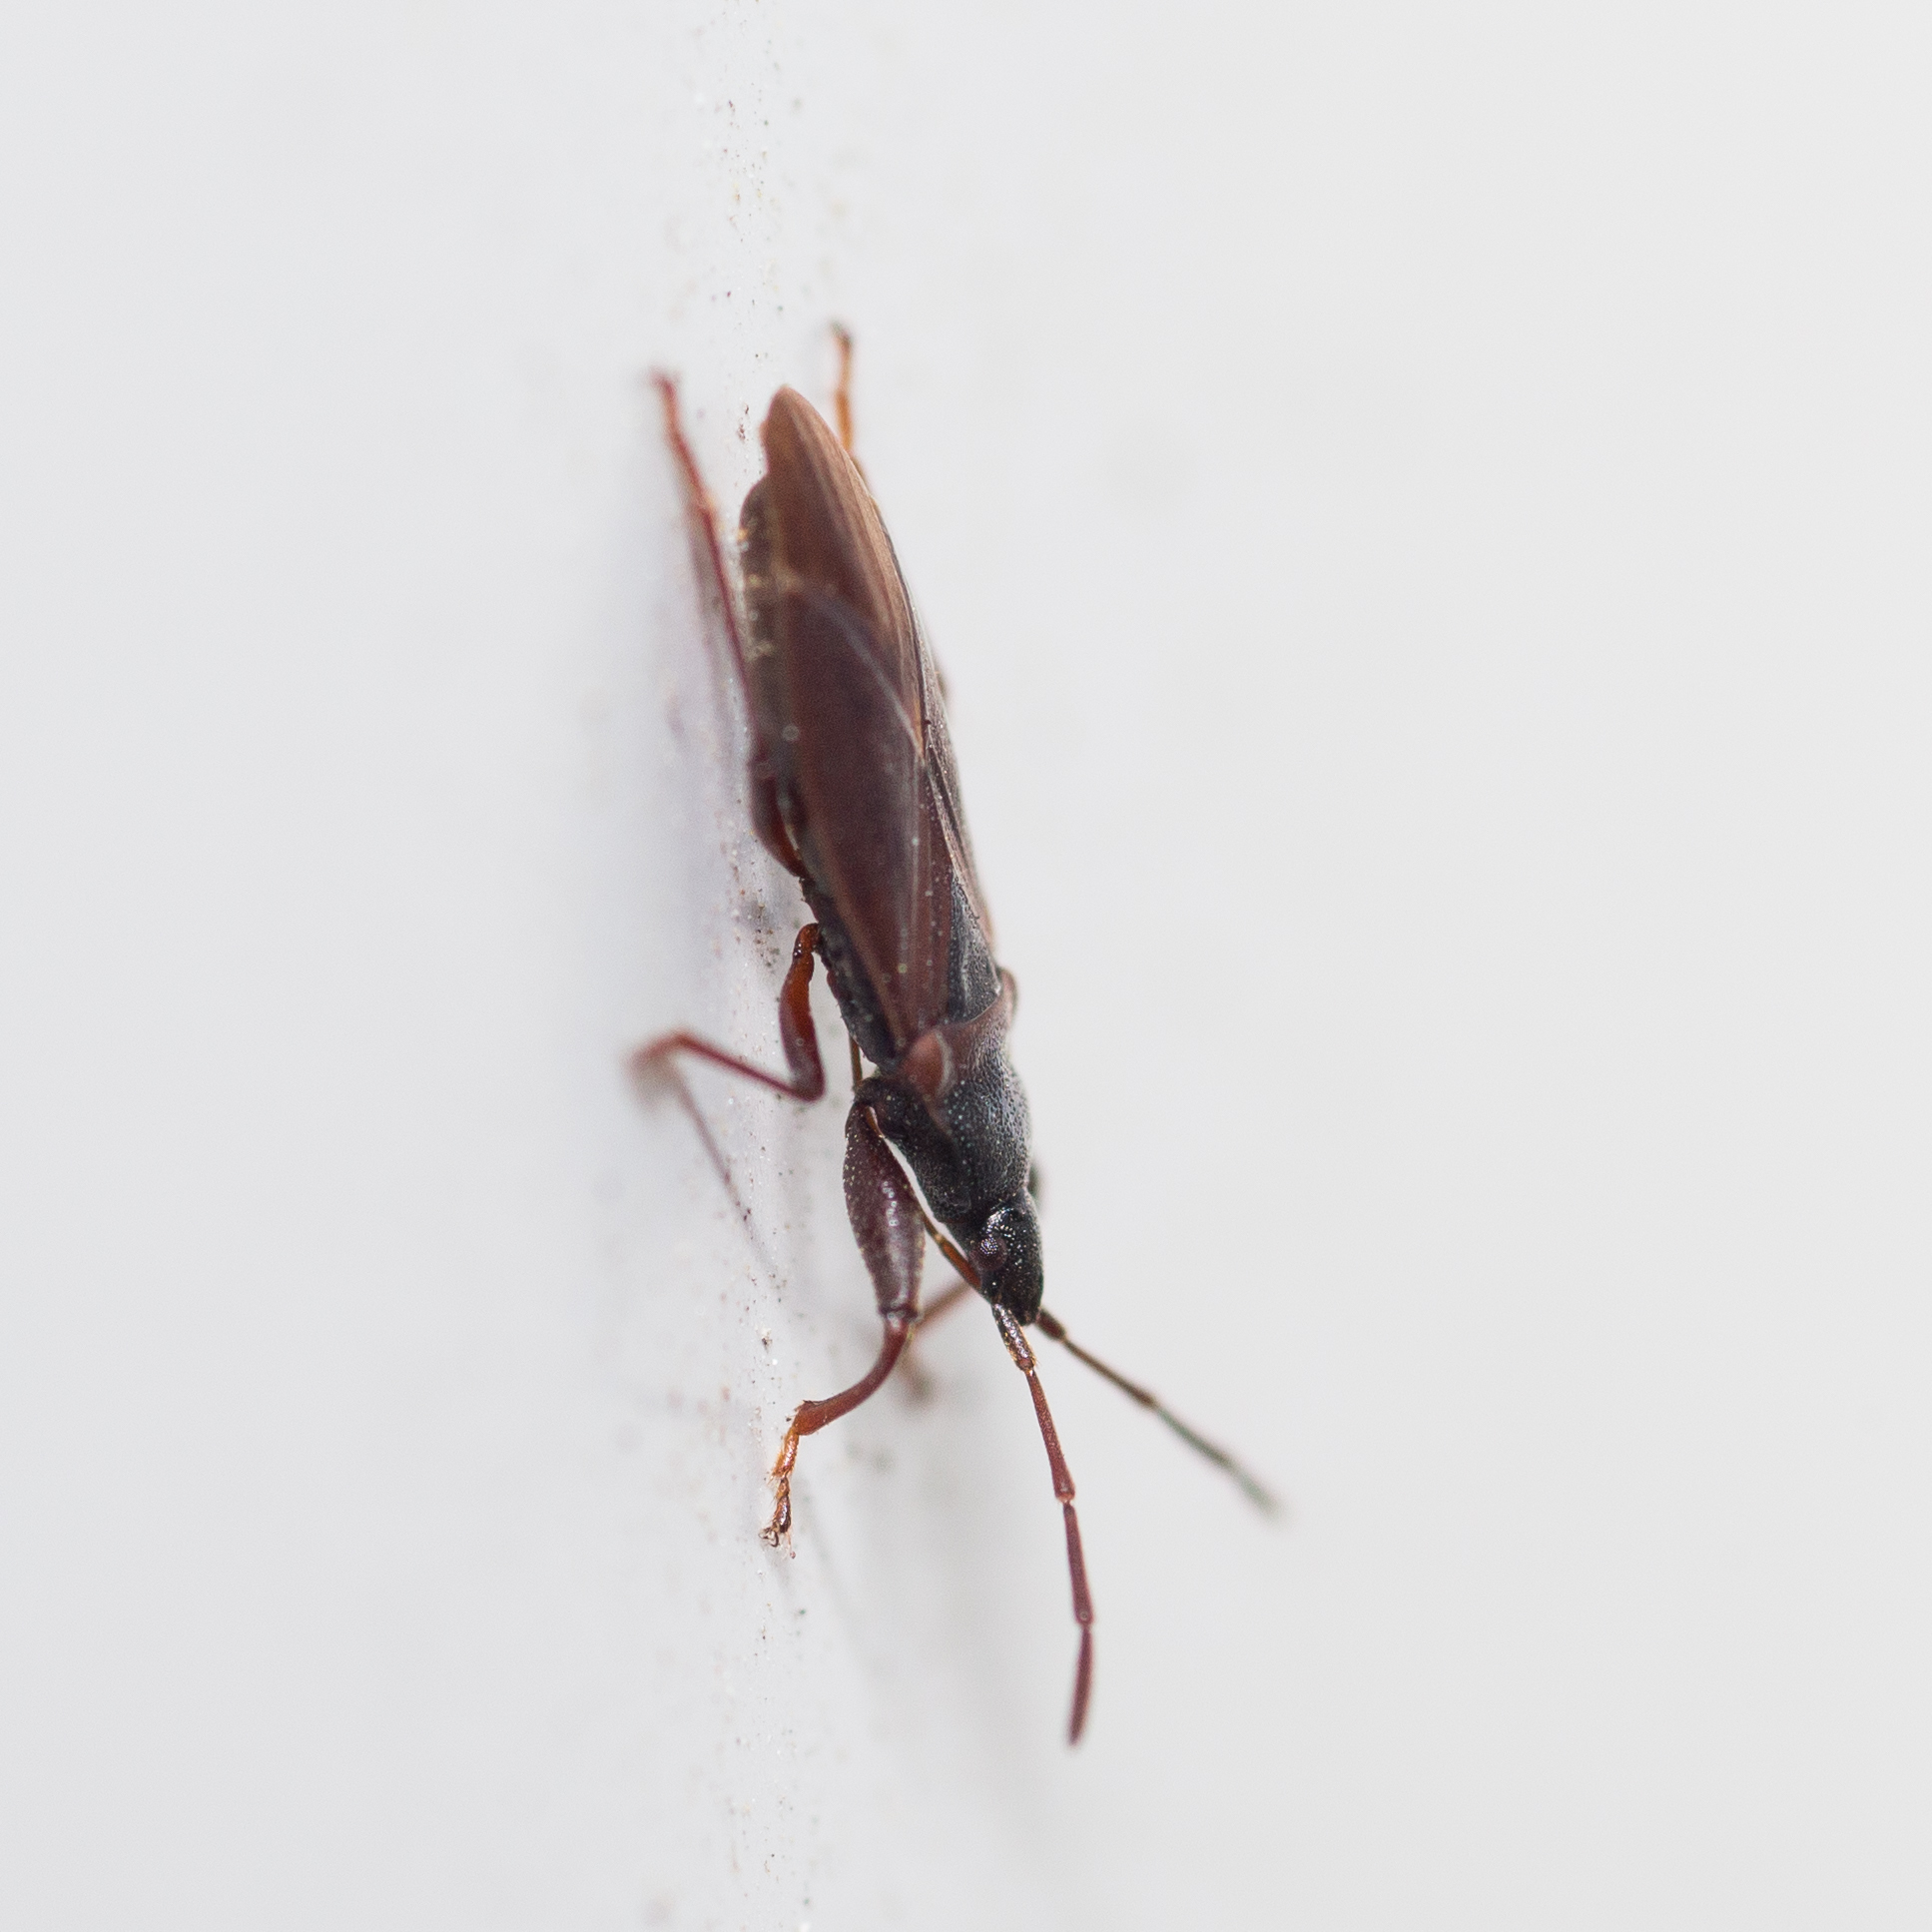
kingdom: Animalia
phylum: Arthropoda
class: Insecta
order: Hemiptera
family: Rhyparochromidae
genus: Gastrodes
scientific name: Gastrodes grossipes
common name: Pine cone bug
